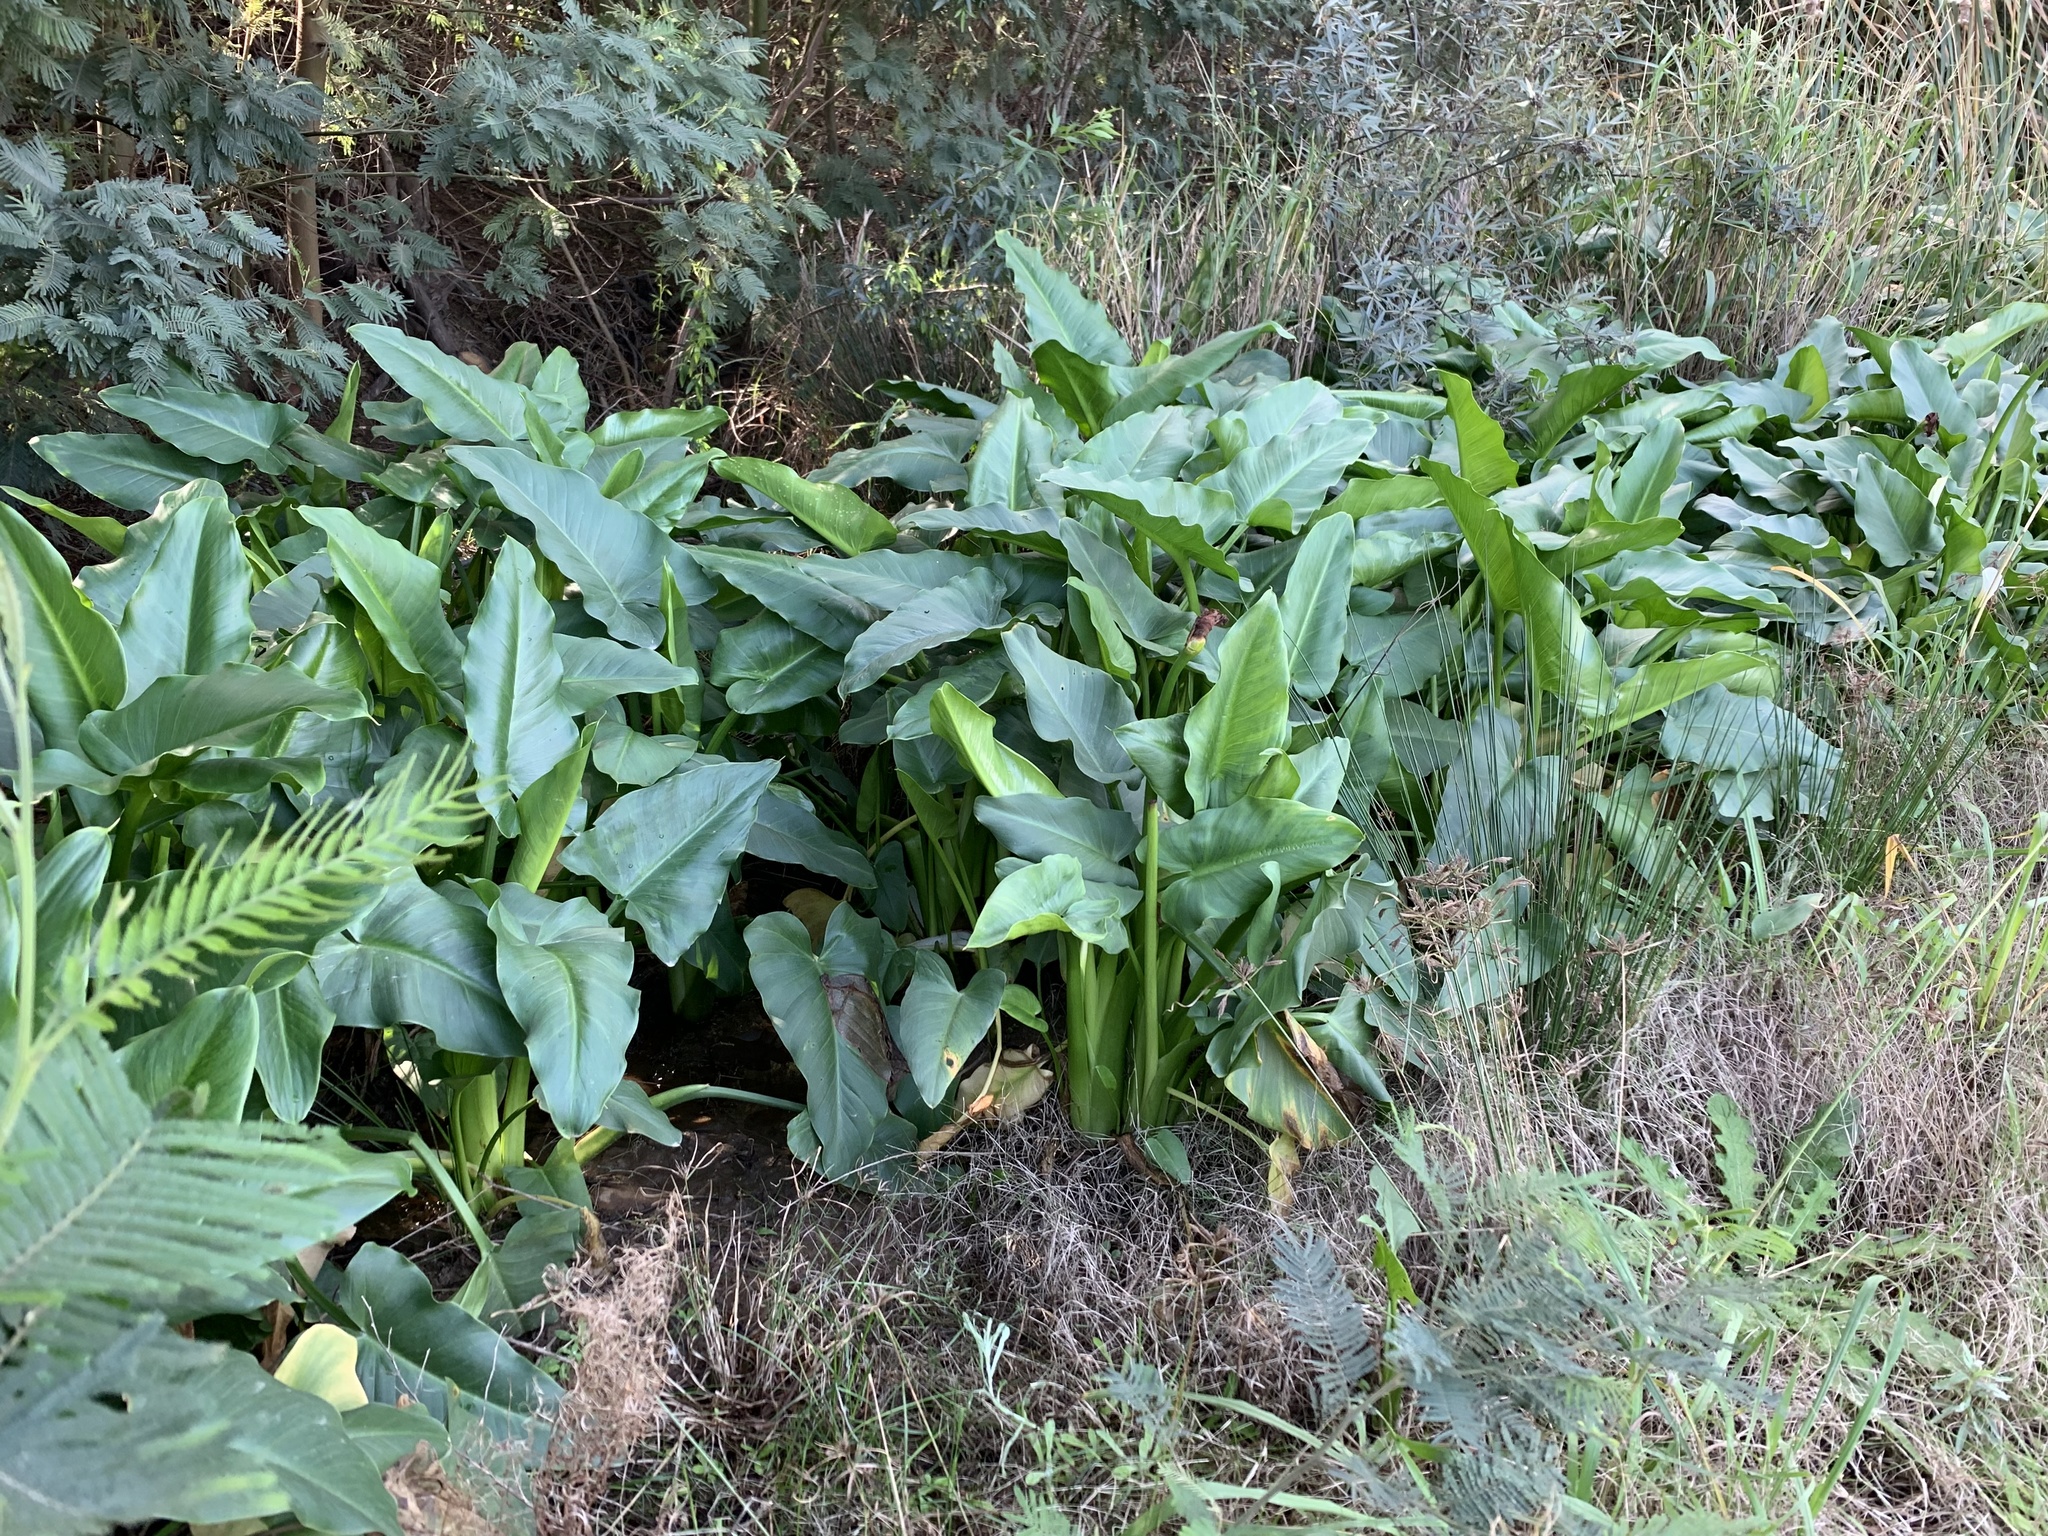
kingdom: Plantae
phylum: Tracheophyta
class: Liliopsida
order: Alismatales
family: Araceae
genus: Zantedeschia
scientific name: Zantedeschia aethiopica
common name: Altar-lily
